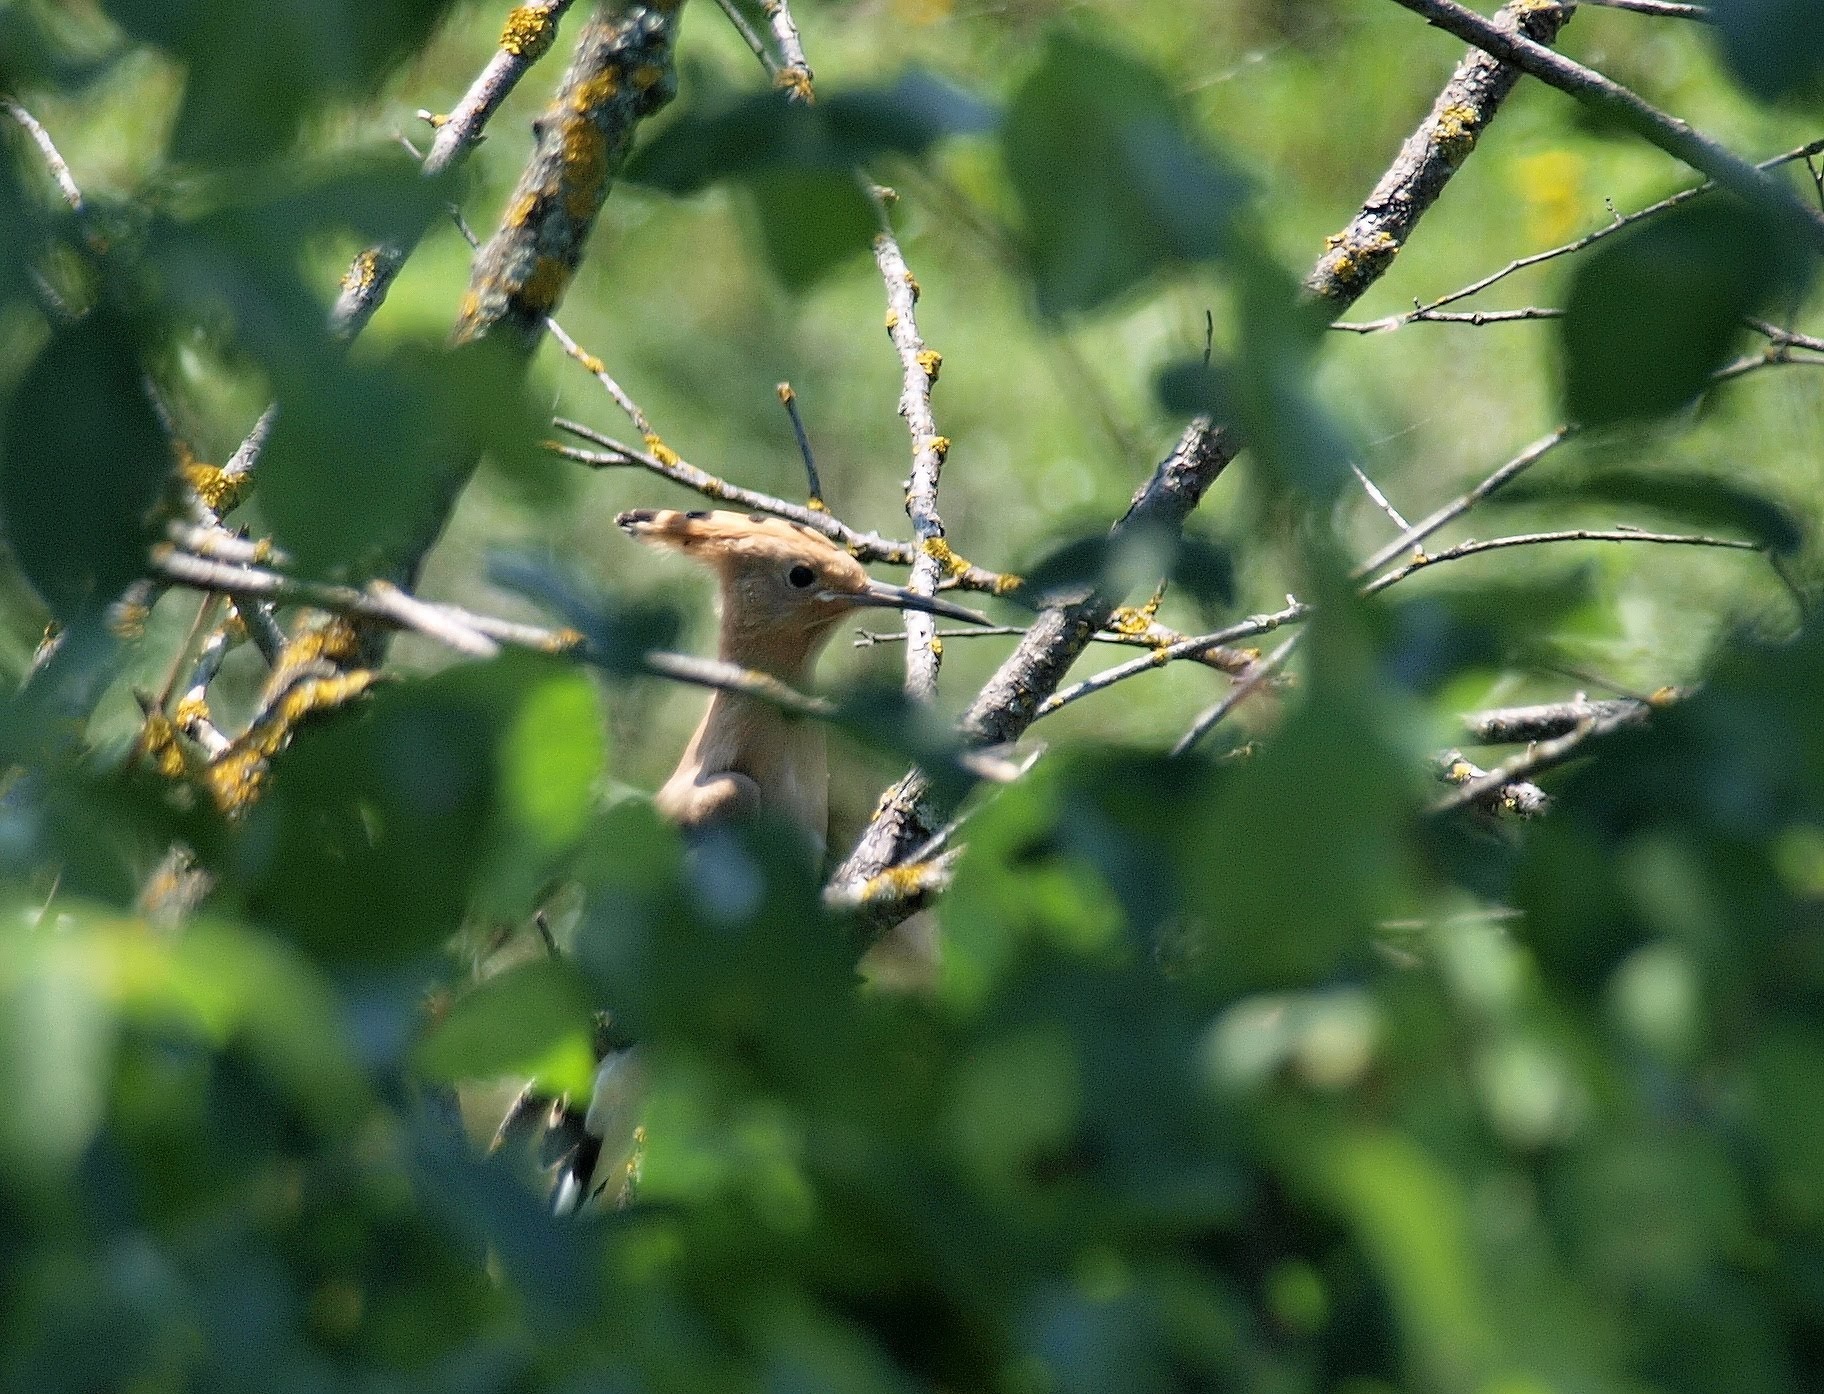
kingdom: Animalia
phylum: Chordata
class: Aves
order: Bucerotiformes
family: Upupidae
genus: Upupa
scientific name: Upupa epops
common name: Eurasian hoopoe
